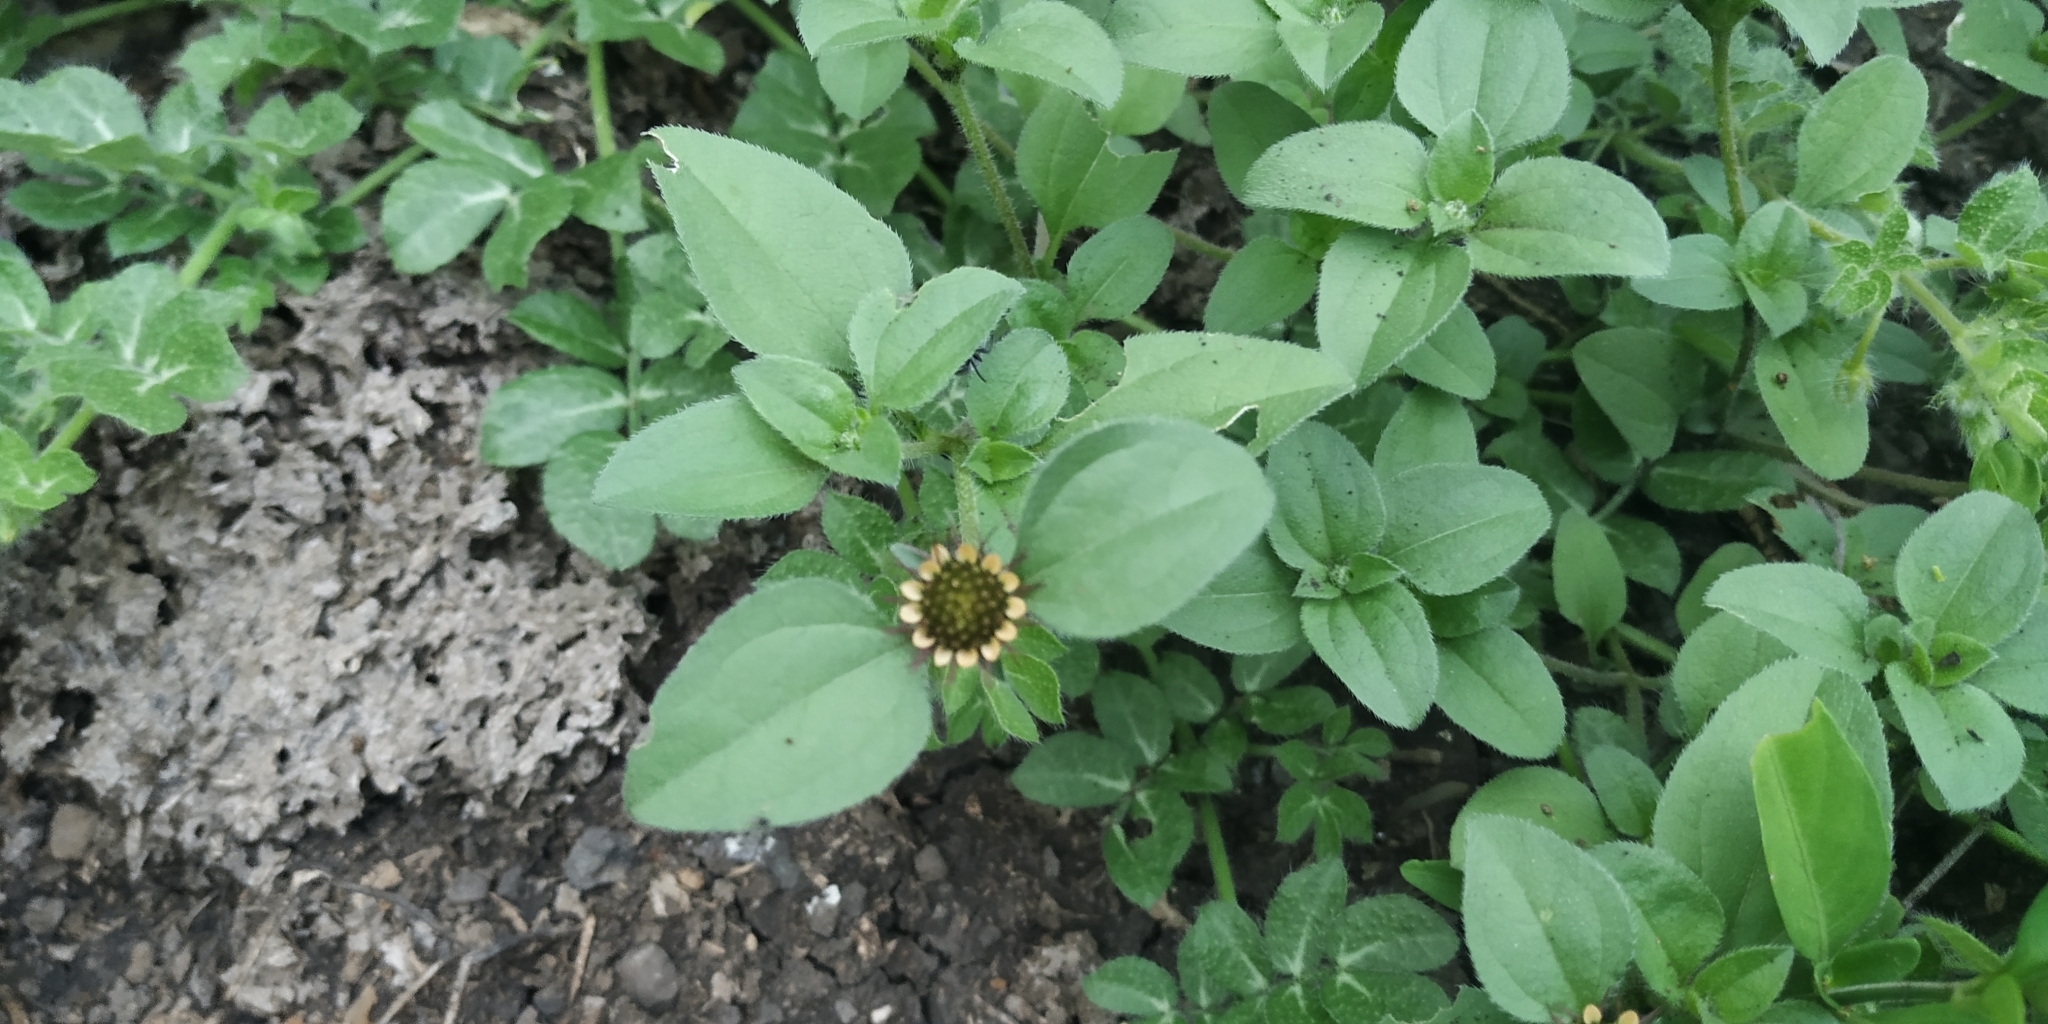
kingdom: Plantae
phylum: Tracheophyta
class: Magnoliopsida
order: Asterales
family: Asteraceae
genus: Sanvitalia
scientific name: Sanvitalia ocymoides
